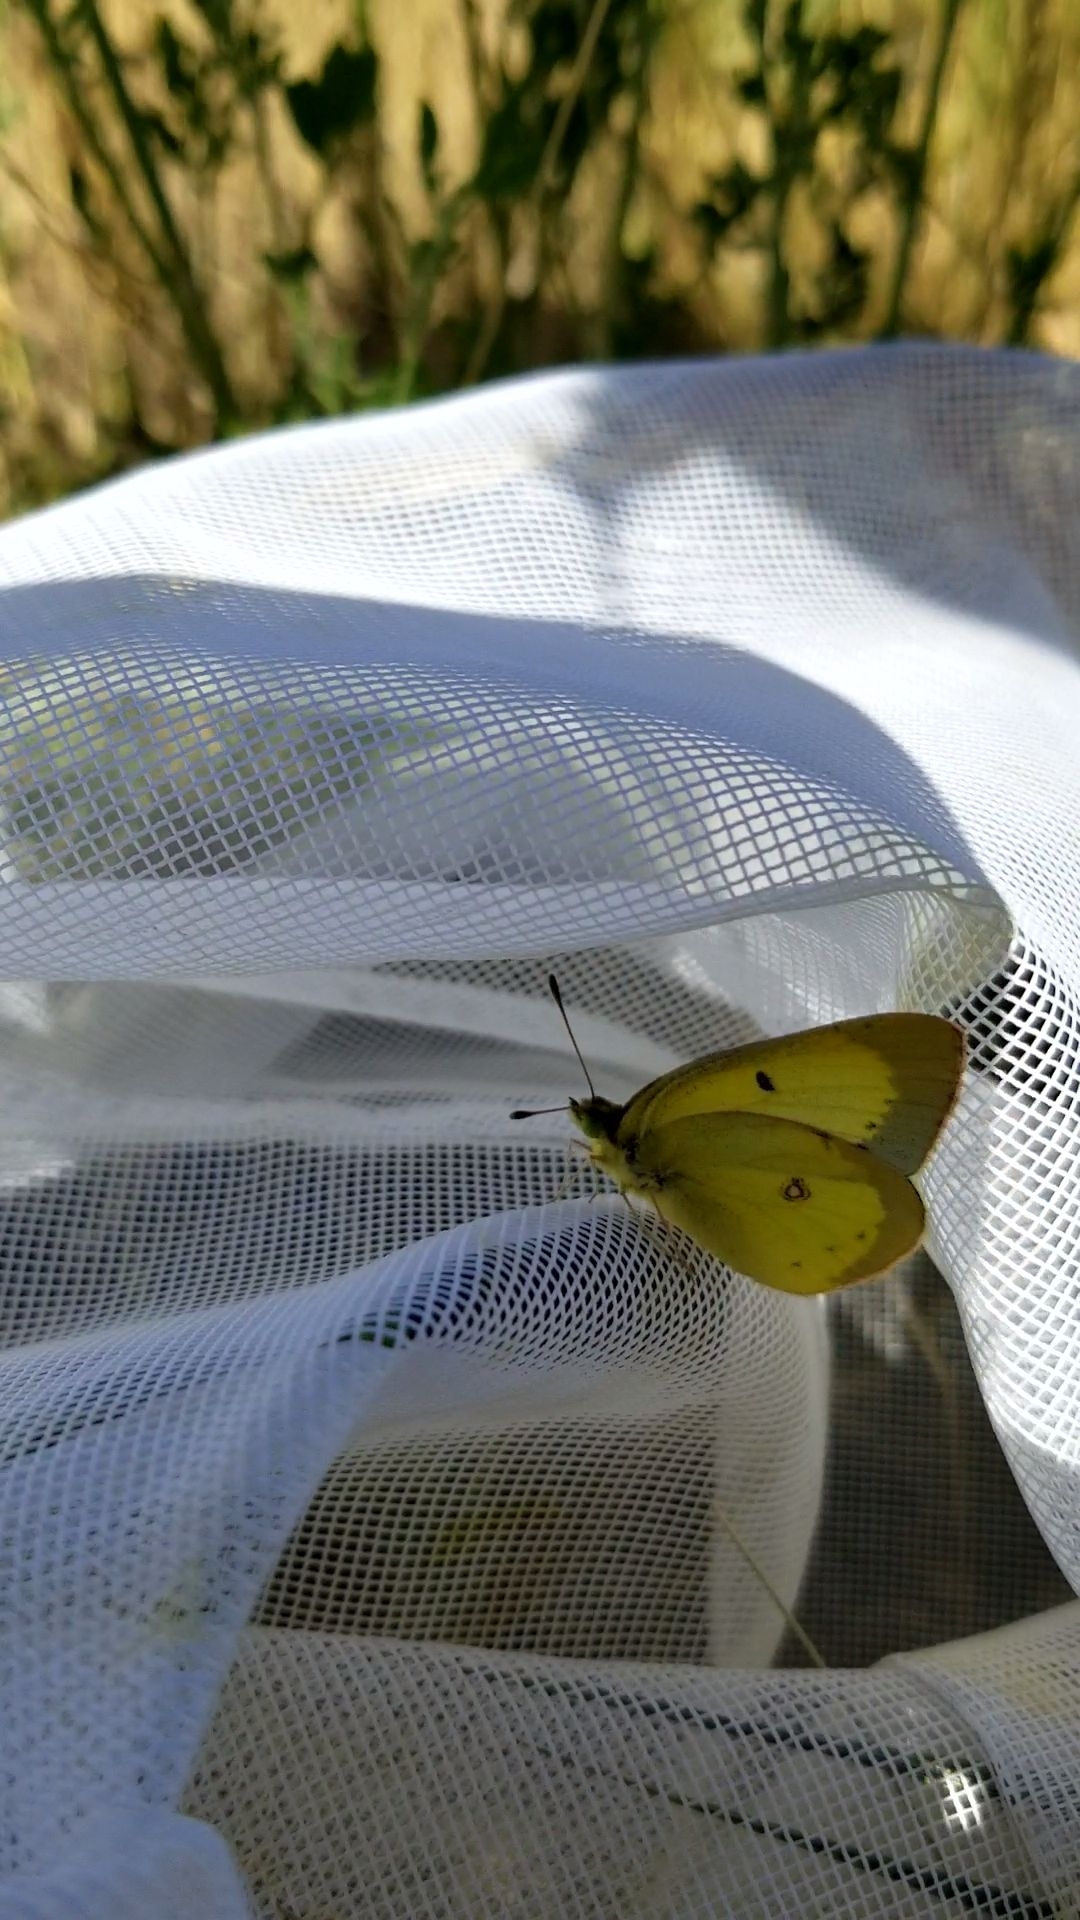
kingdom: Animalia
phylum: Arthropoda
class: Insecta
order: Lepidoptera
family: Pieridae
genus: Colias
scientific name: Colias philodice
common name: Clouded sulphur
